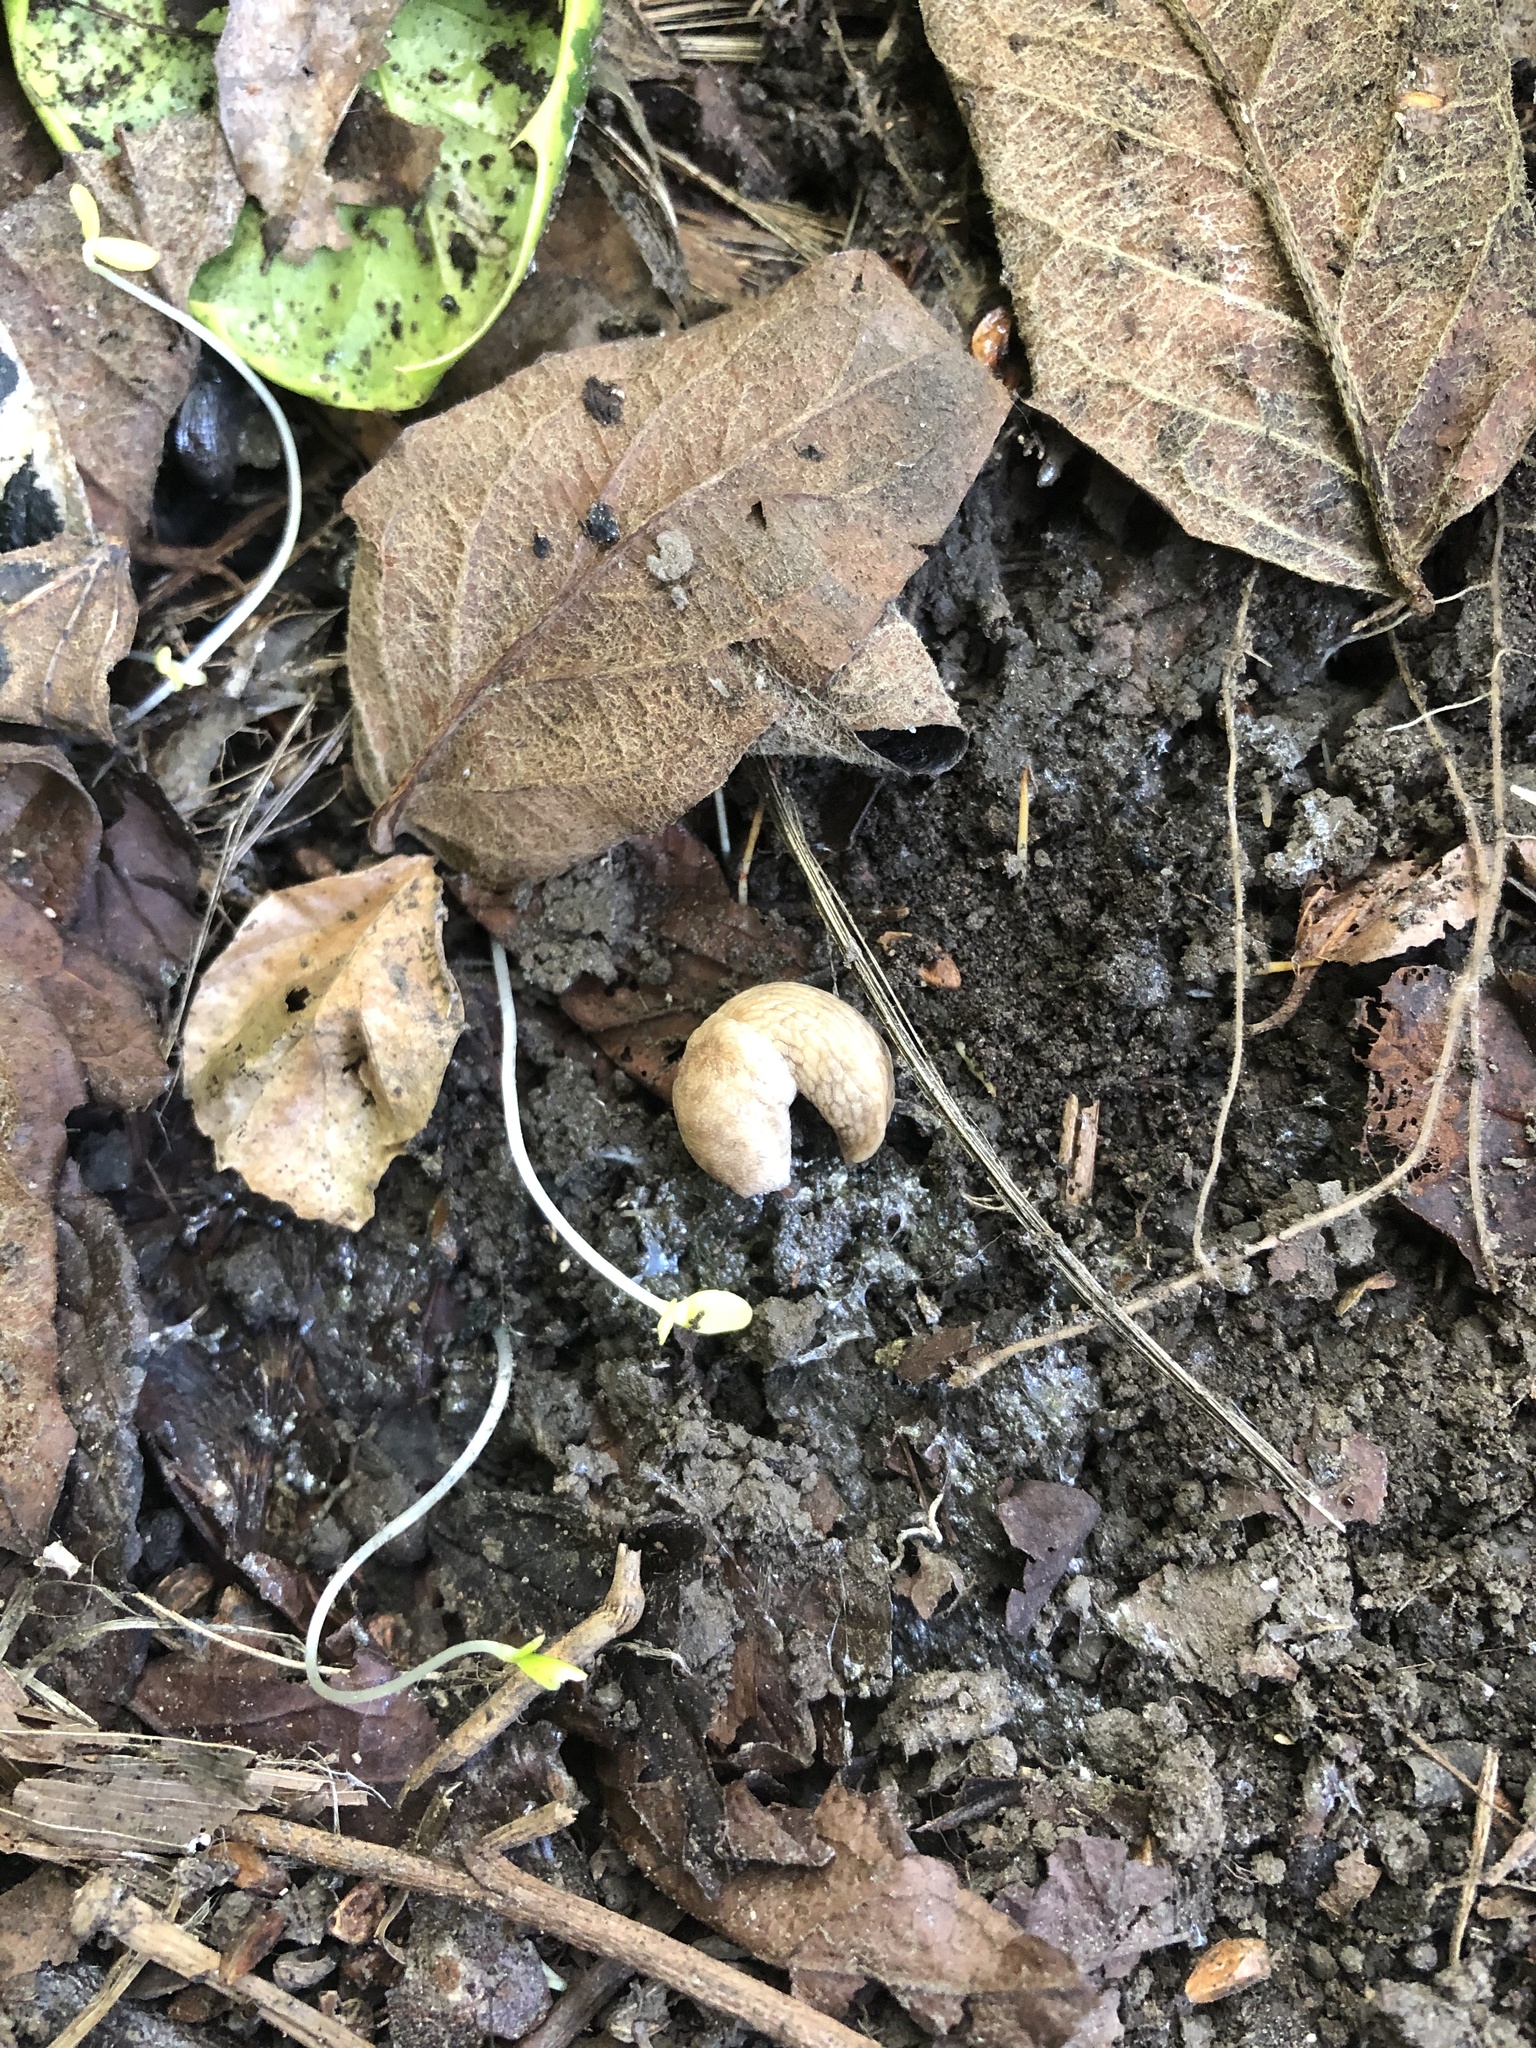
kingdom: Animalia
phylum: Mollusca
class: Gastropoda
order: Stylommatophora
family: Agriolimacidae
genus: Deroceras
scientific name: Deroceras reticulatum
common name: Gray field slug
